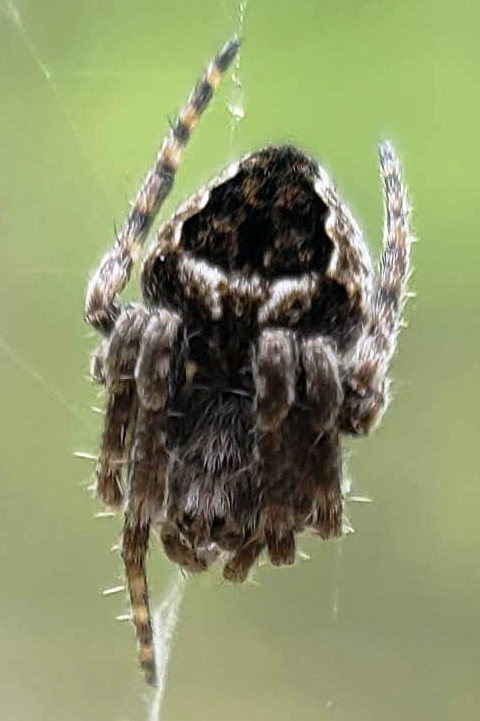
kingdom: Animalia
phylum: Arthropoda
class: Arachnida
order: Araneae
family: Araneidae
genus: Eustala
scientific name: Eustala
